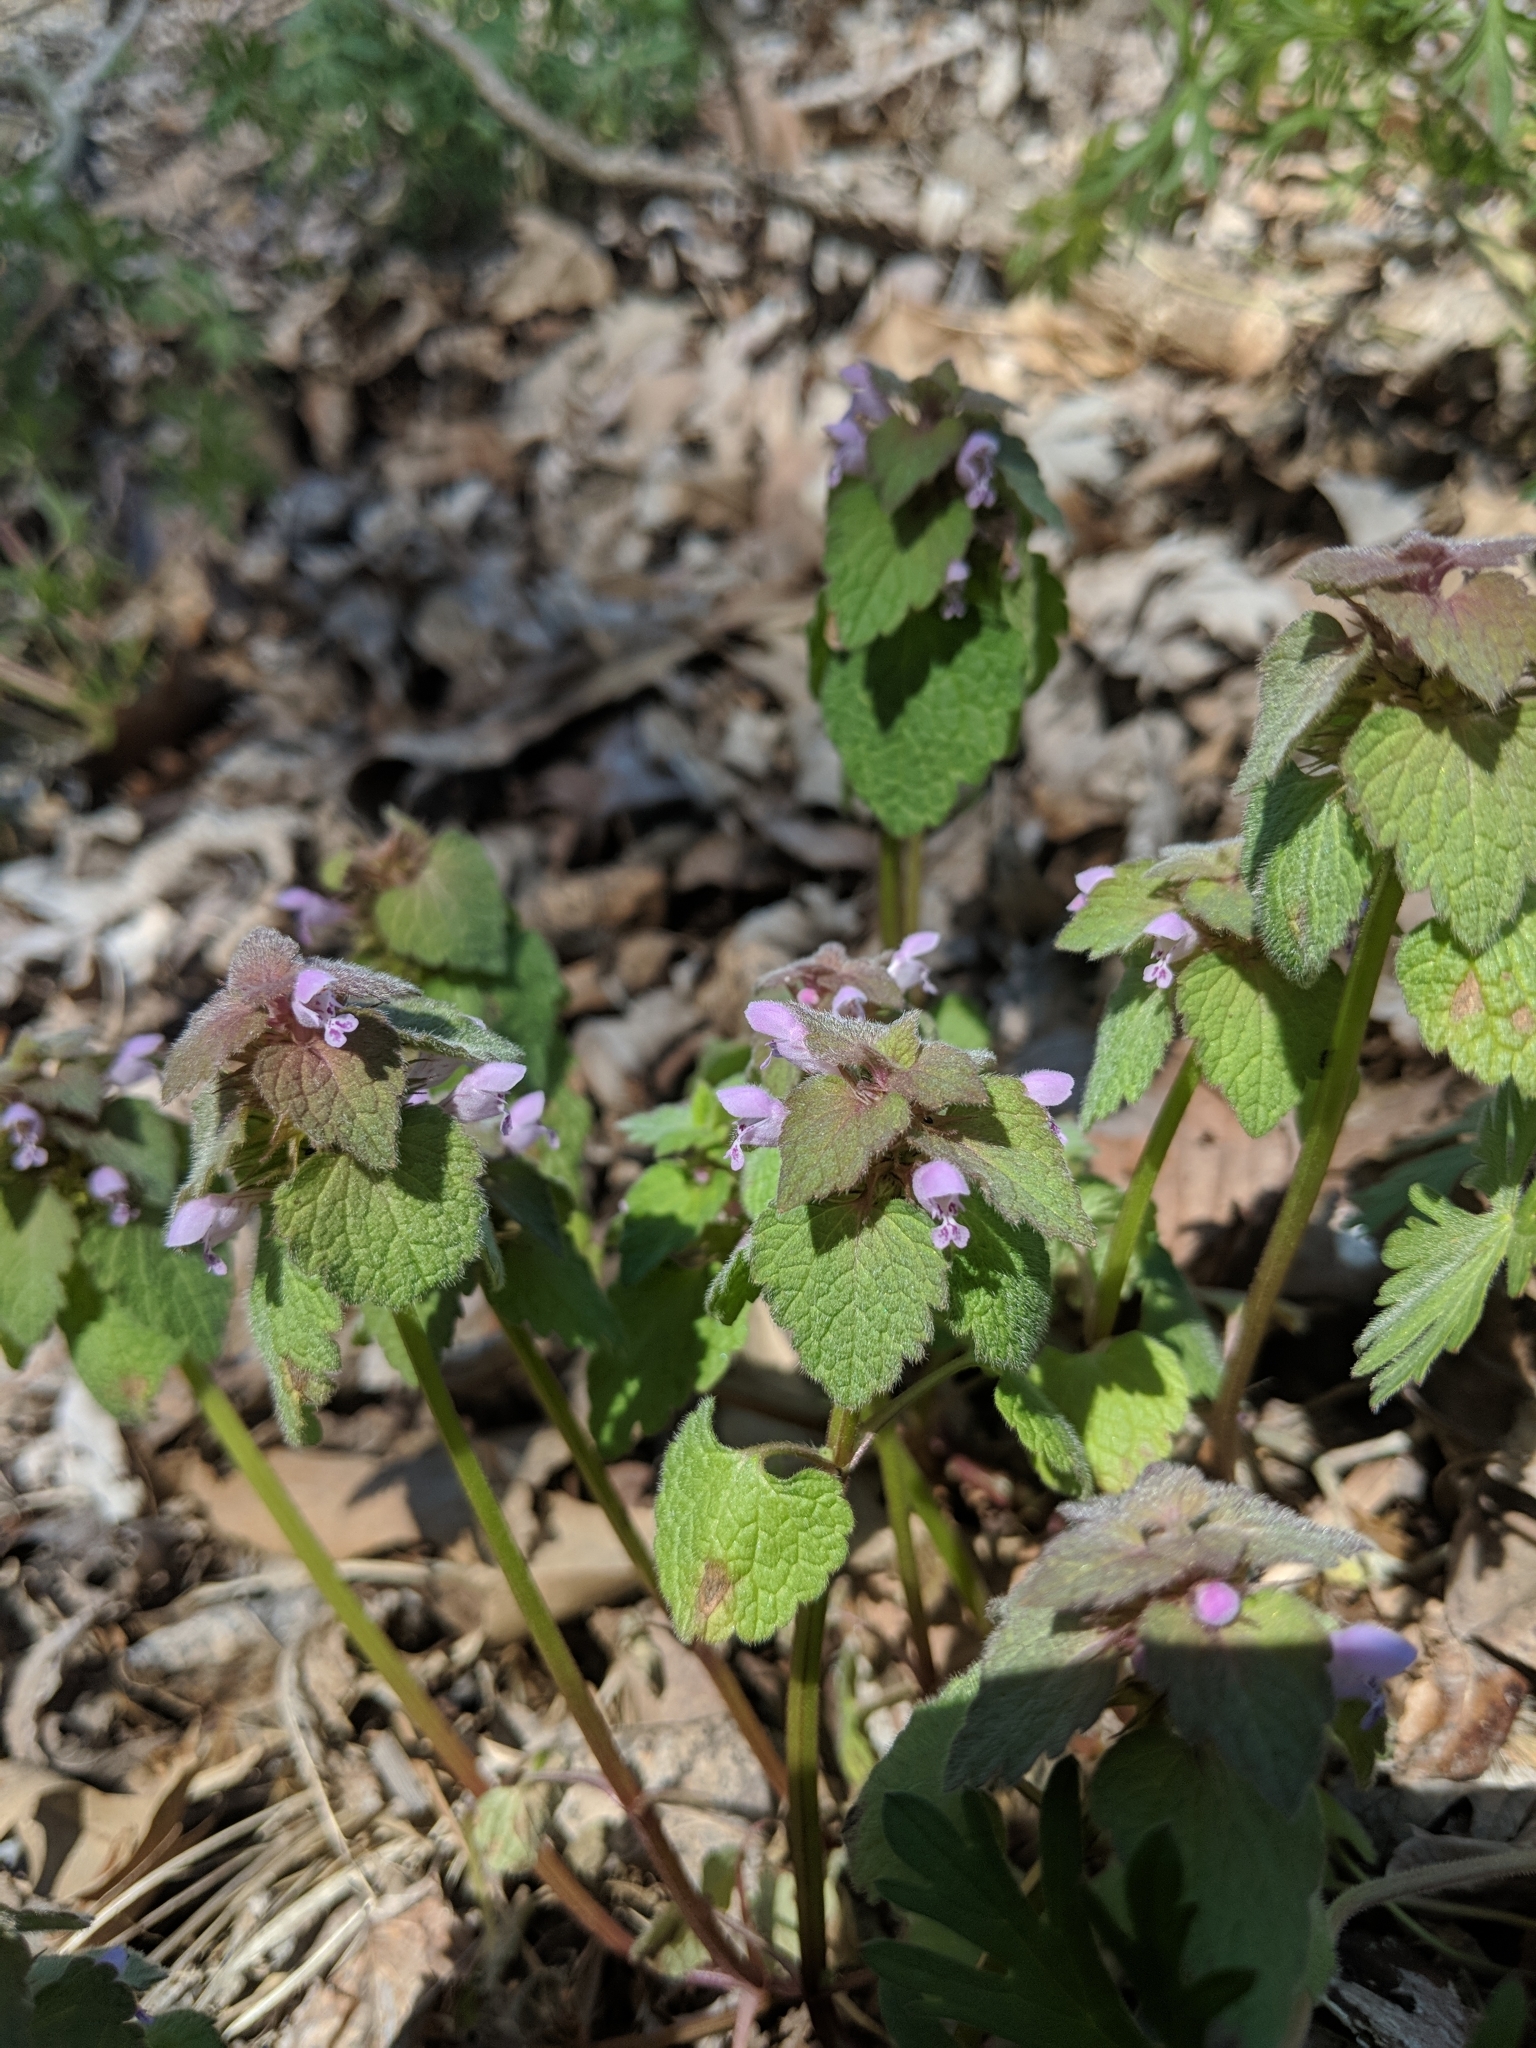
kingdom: Plantae
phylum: Tracheophyta
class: Magnoliopsida
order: Lamiales
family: Lamiaceae
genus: Lamium
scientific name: Lamium purpureum
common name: Red dead-nettle
